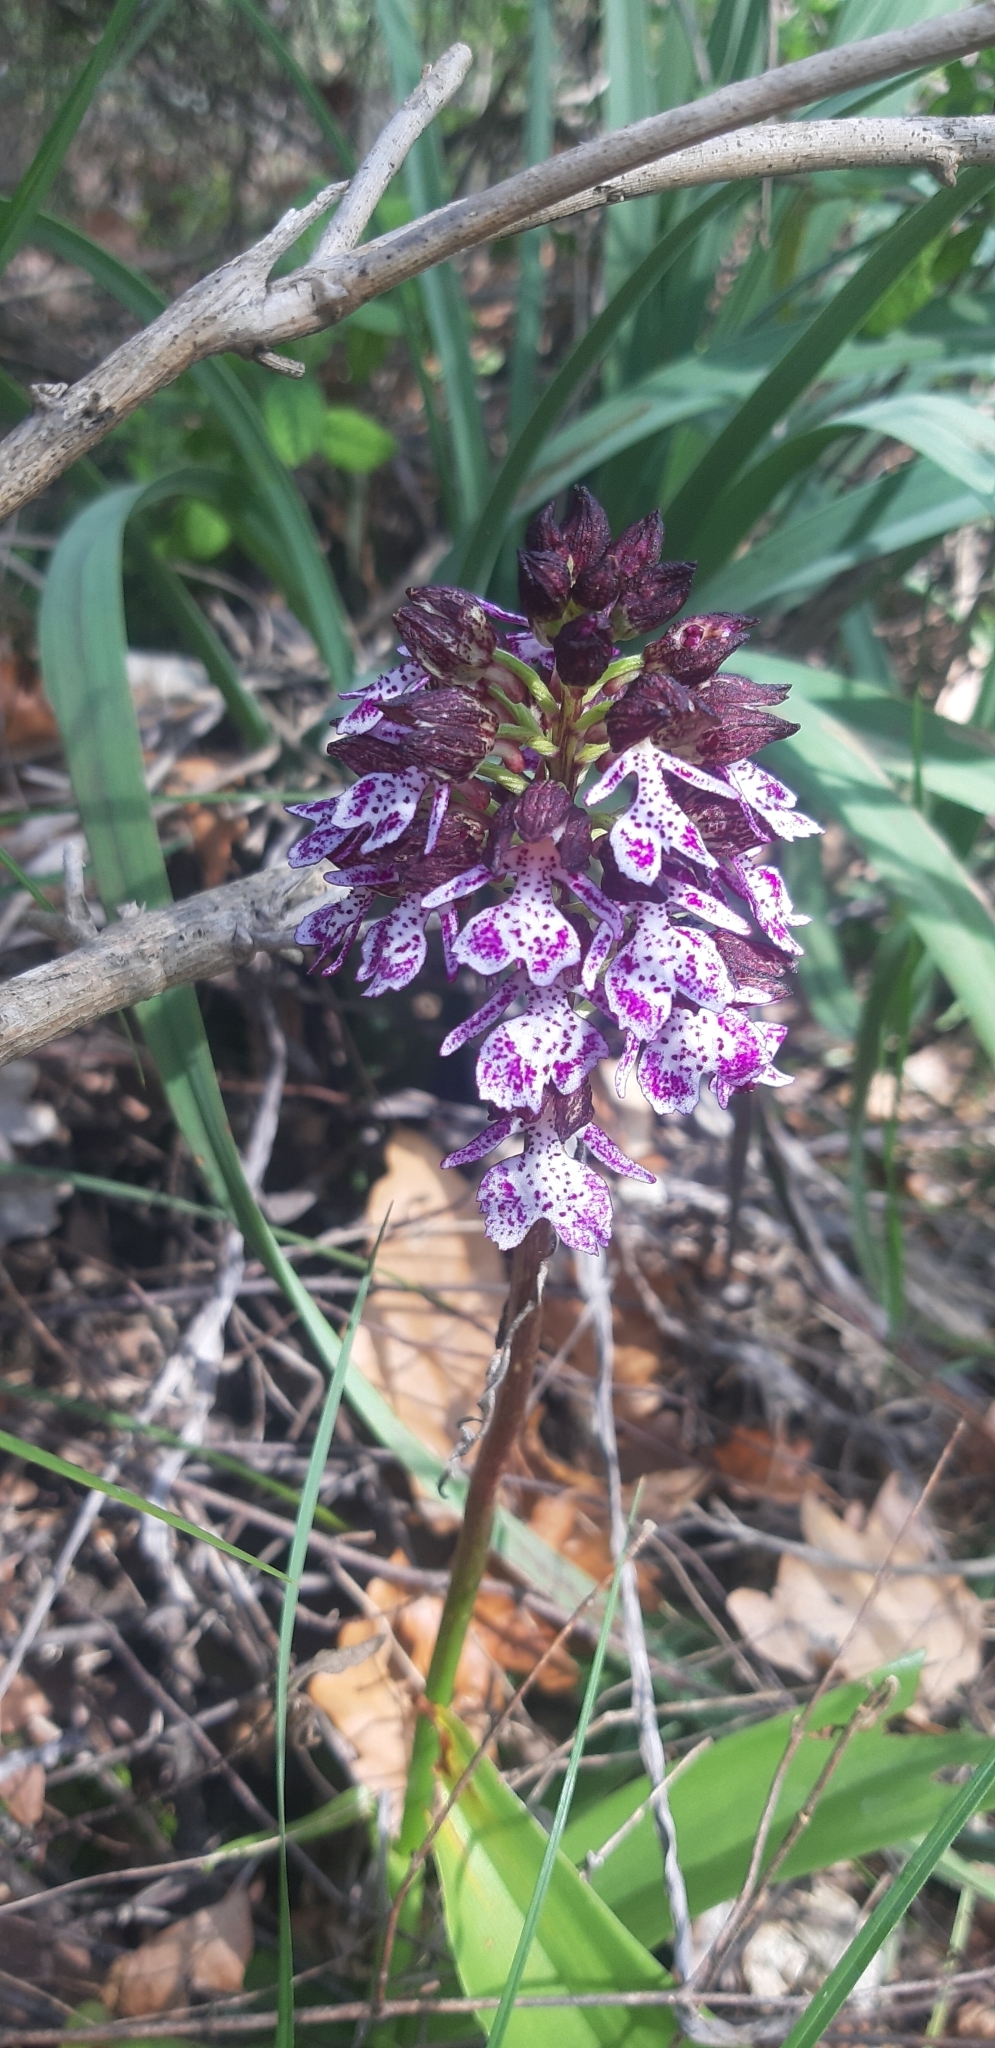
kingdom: Plantae
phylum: Tracheophyta
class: Liliopsida
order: Asparagales
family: Orchidaceae
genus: Orchis
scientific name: Orchis purpurea
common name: Lady orchid
